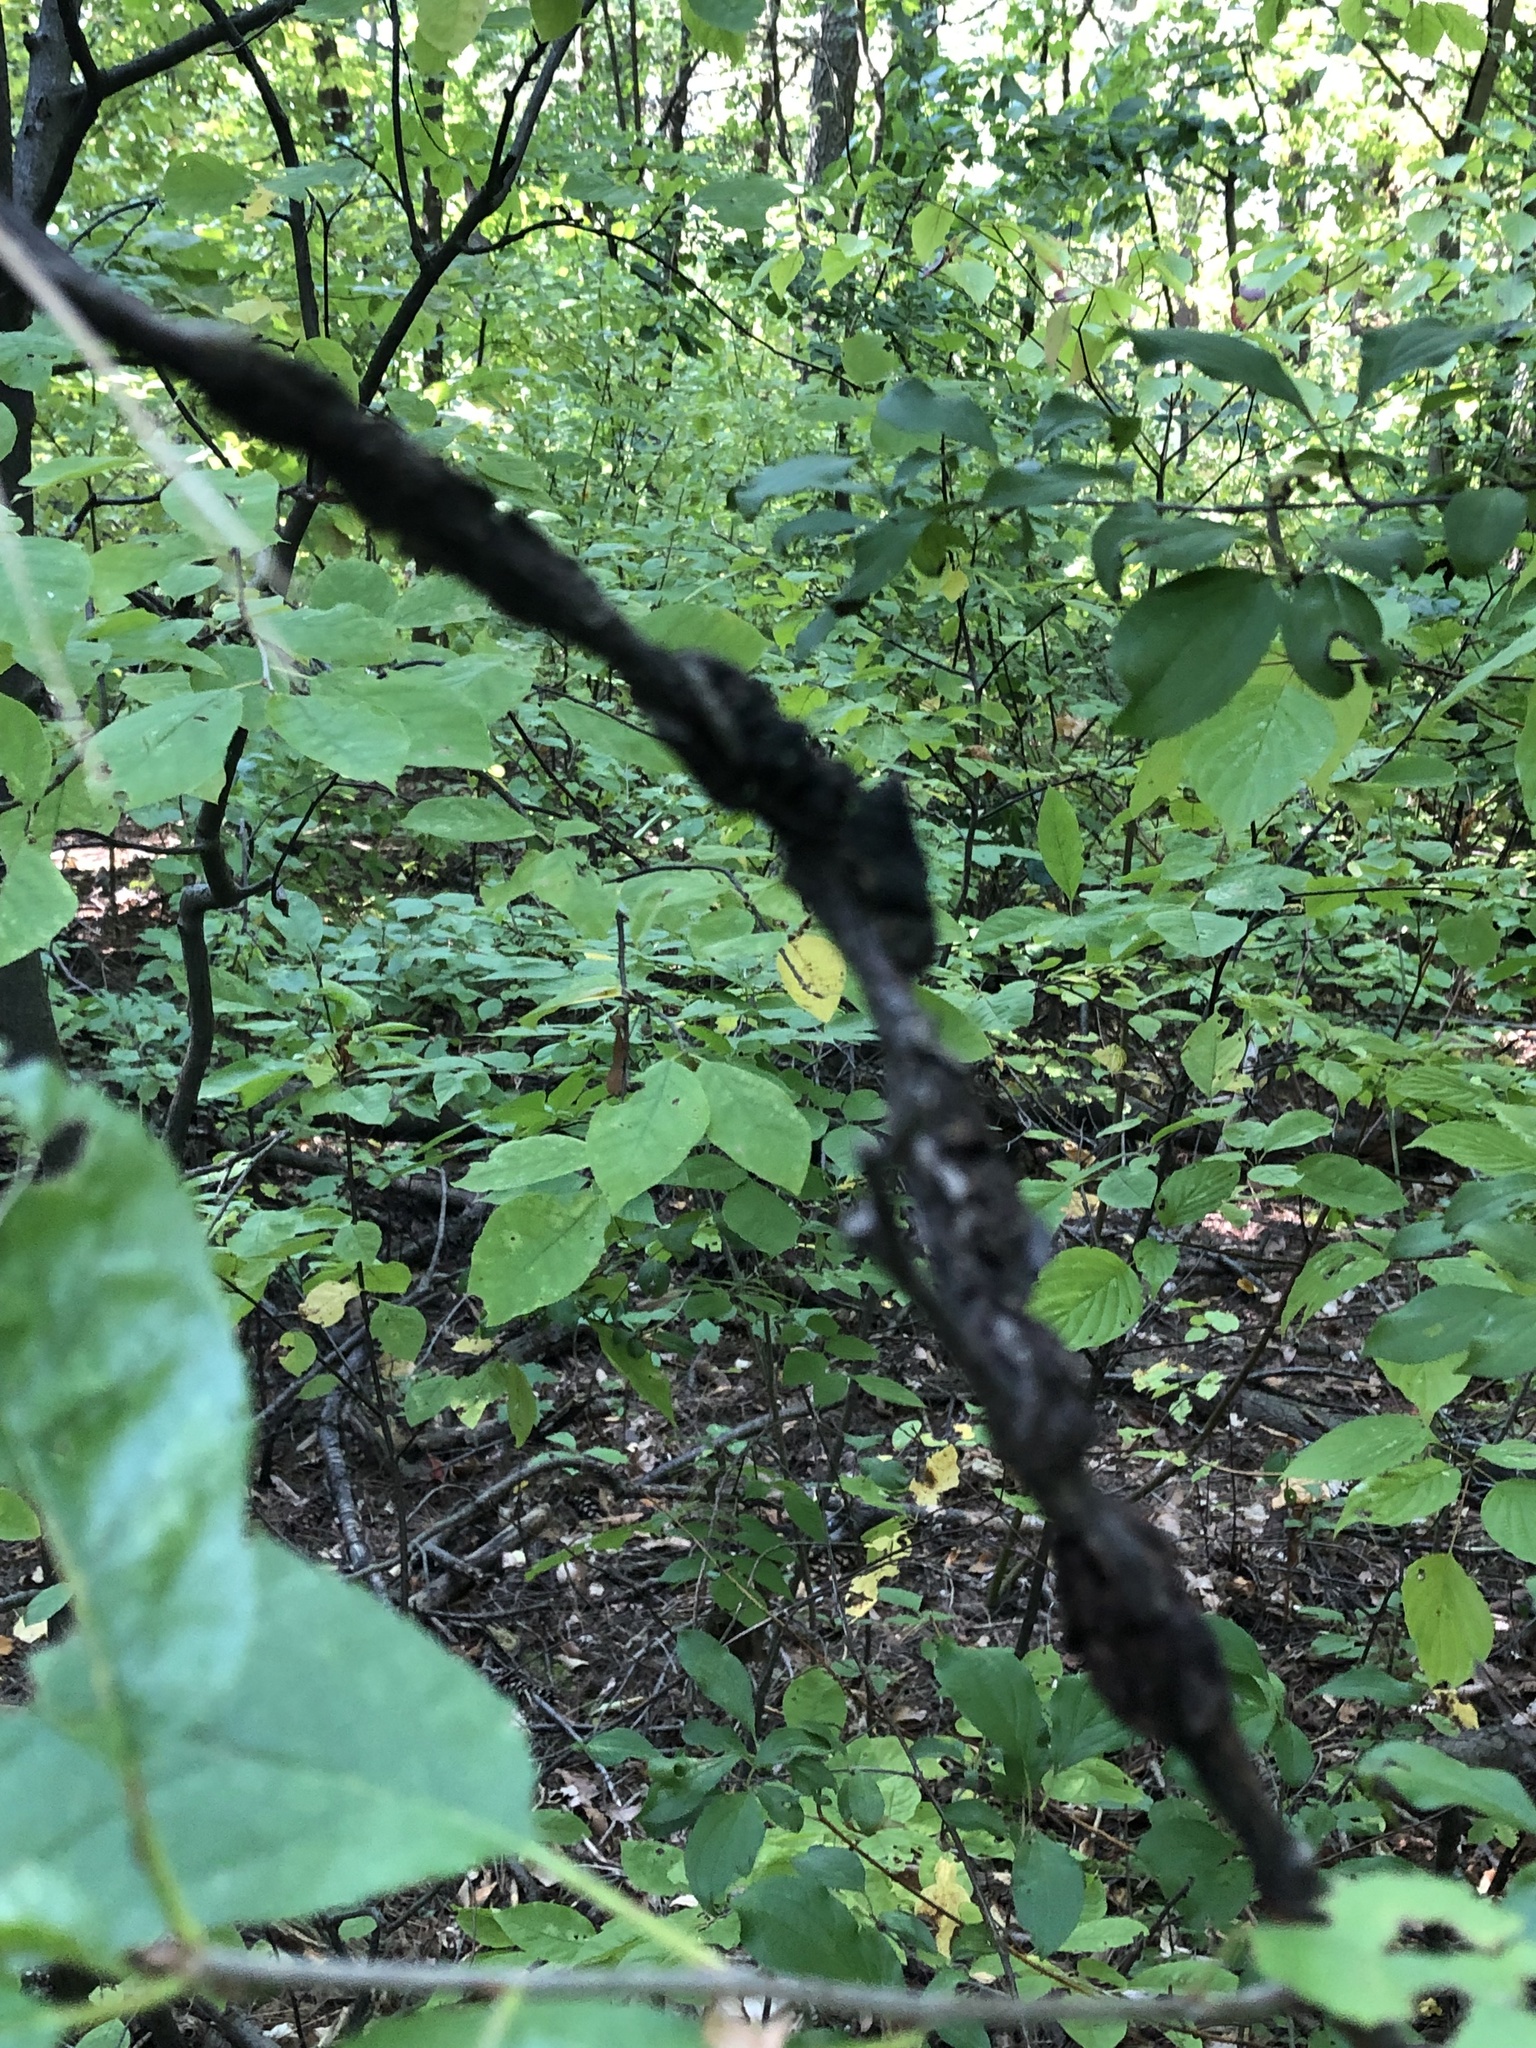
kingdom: Fungi
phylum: Ascomycota
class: Dothideomycetes
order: Venturiales
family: Venturiaceae
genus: Apiosporina
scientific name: Apiosporina morbosa
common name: Black knot
